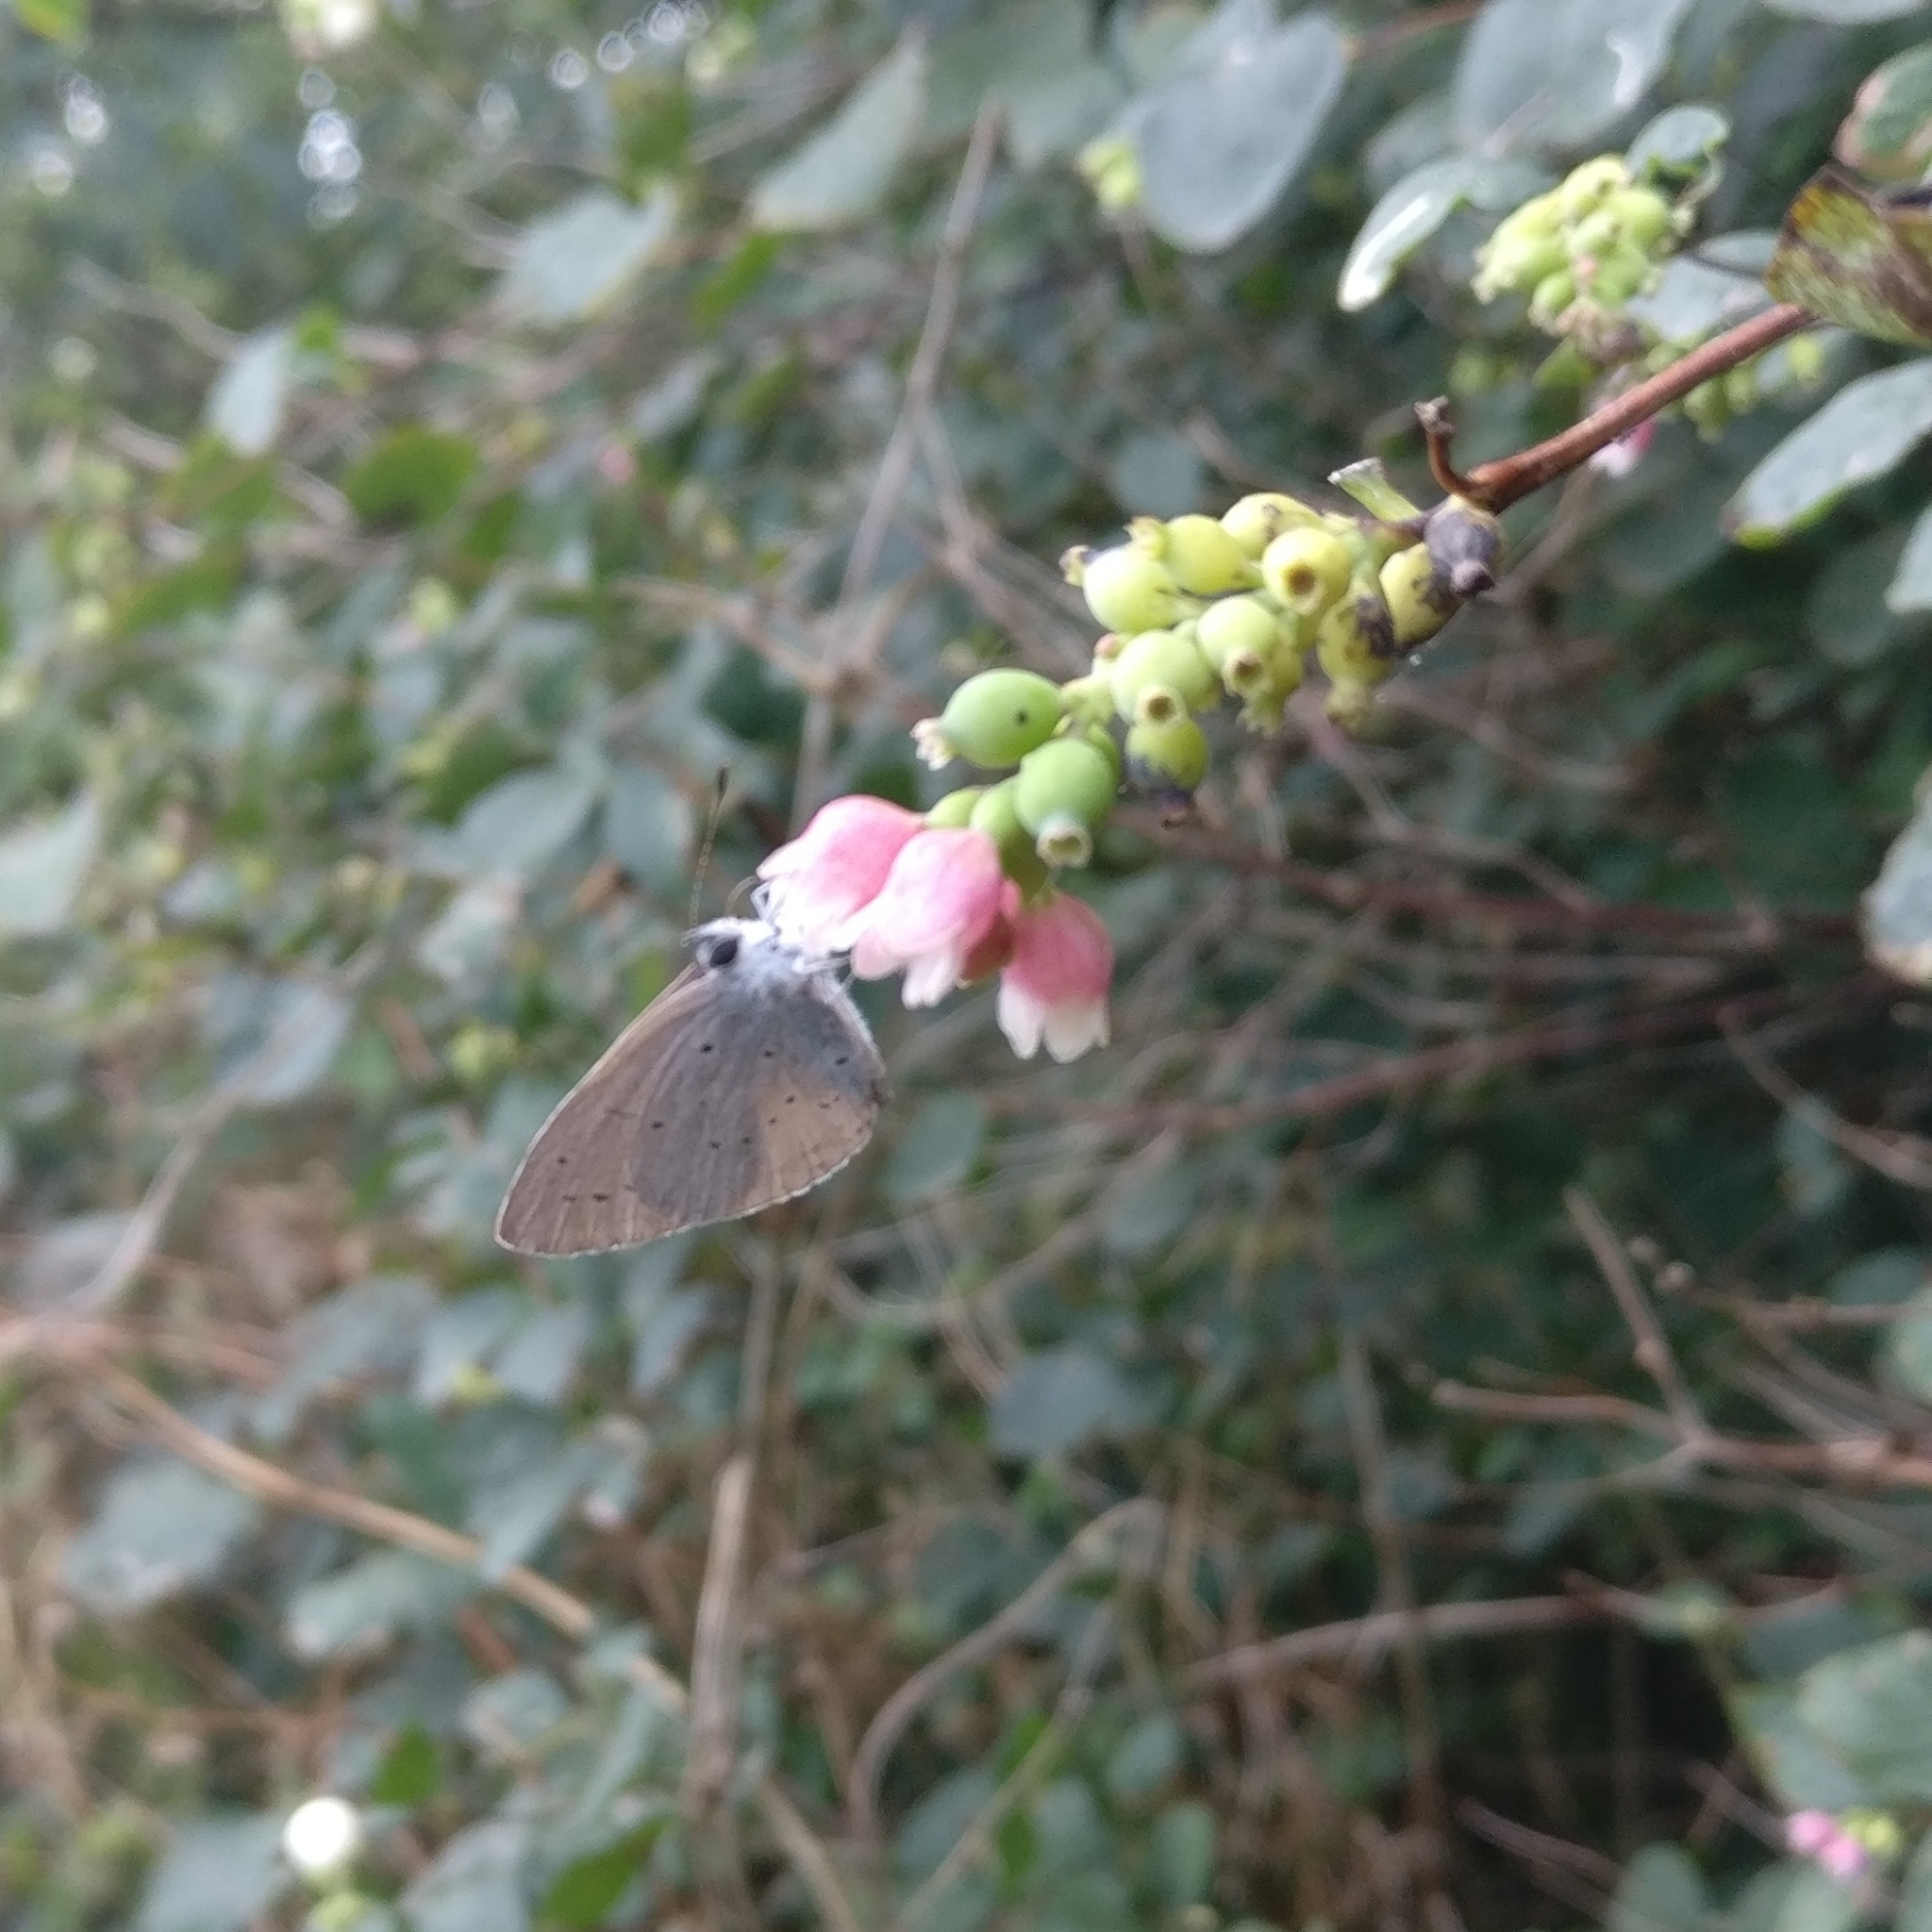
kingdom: Animalia
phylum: Arthropoda
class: Insecta
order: Lepidoptera
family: Lycaenidae
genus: Celastrina
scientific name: Celastrina argiolus
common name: Holly blue
